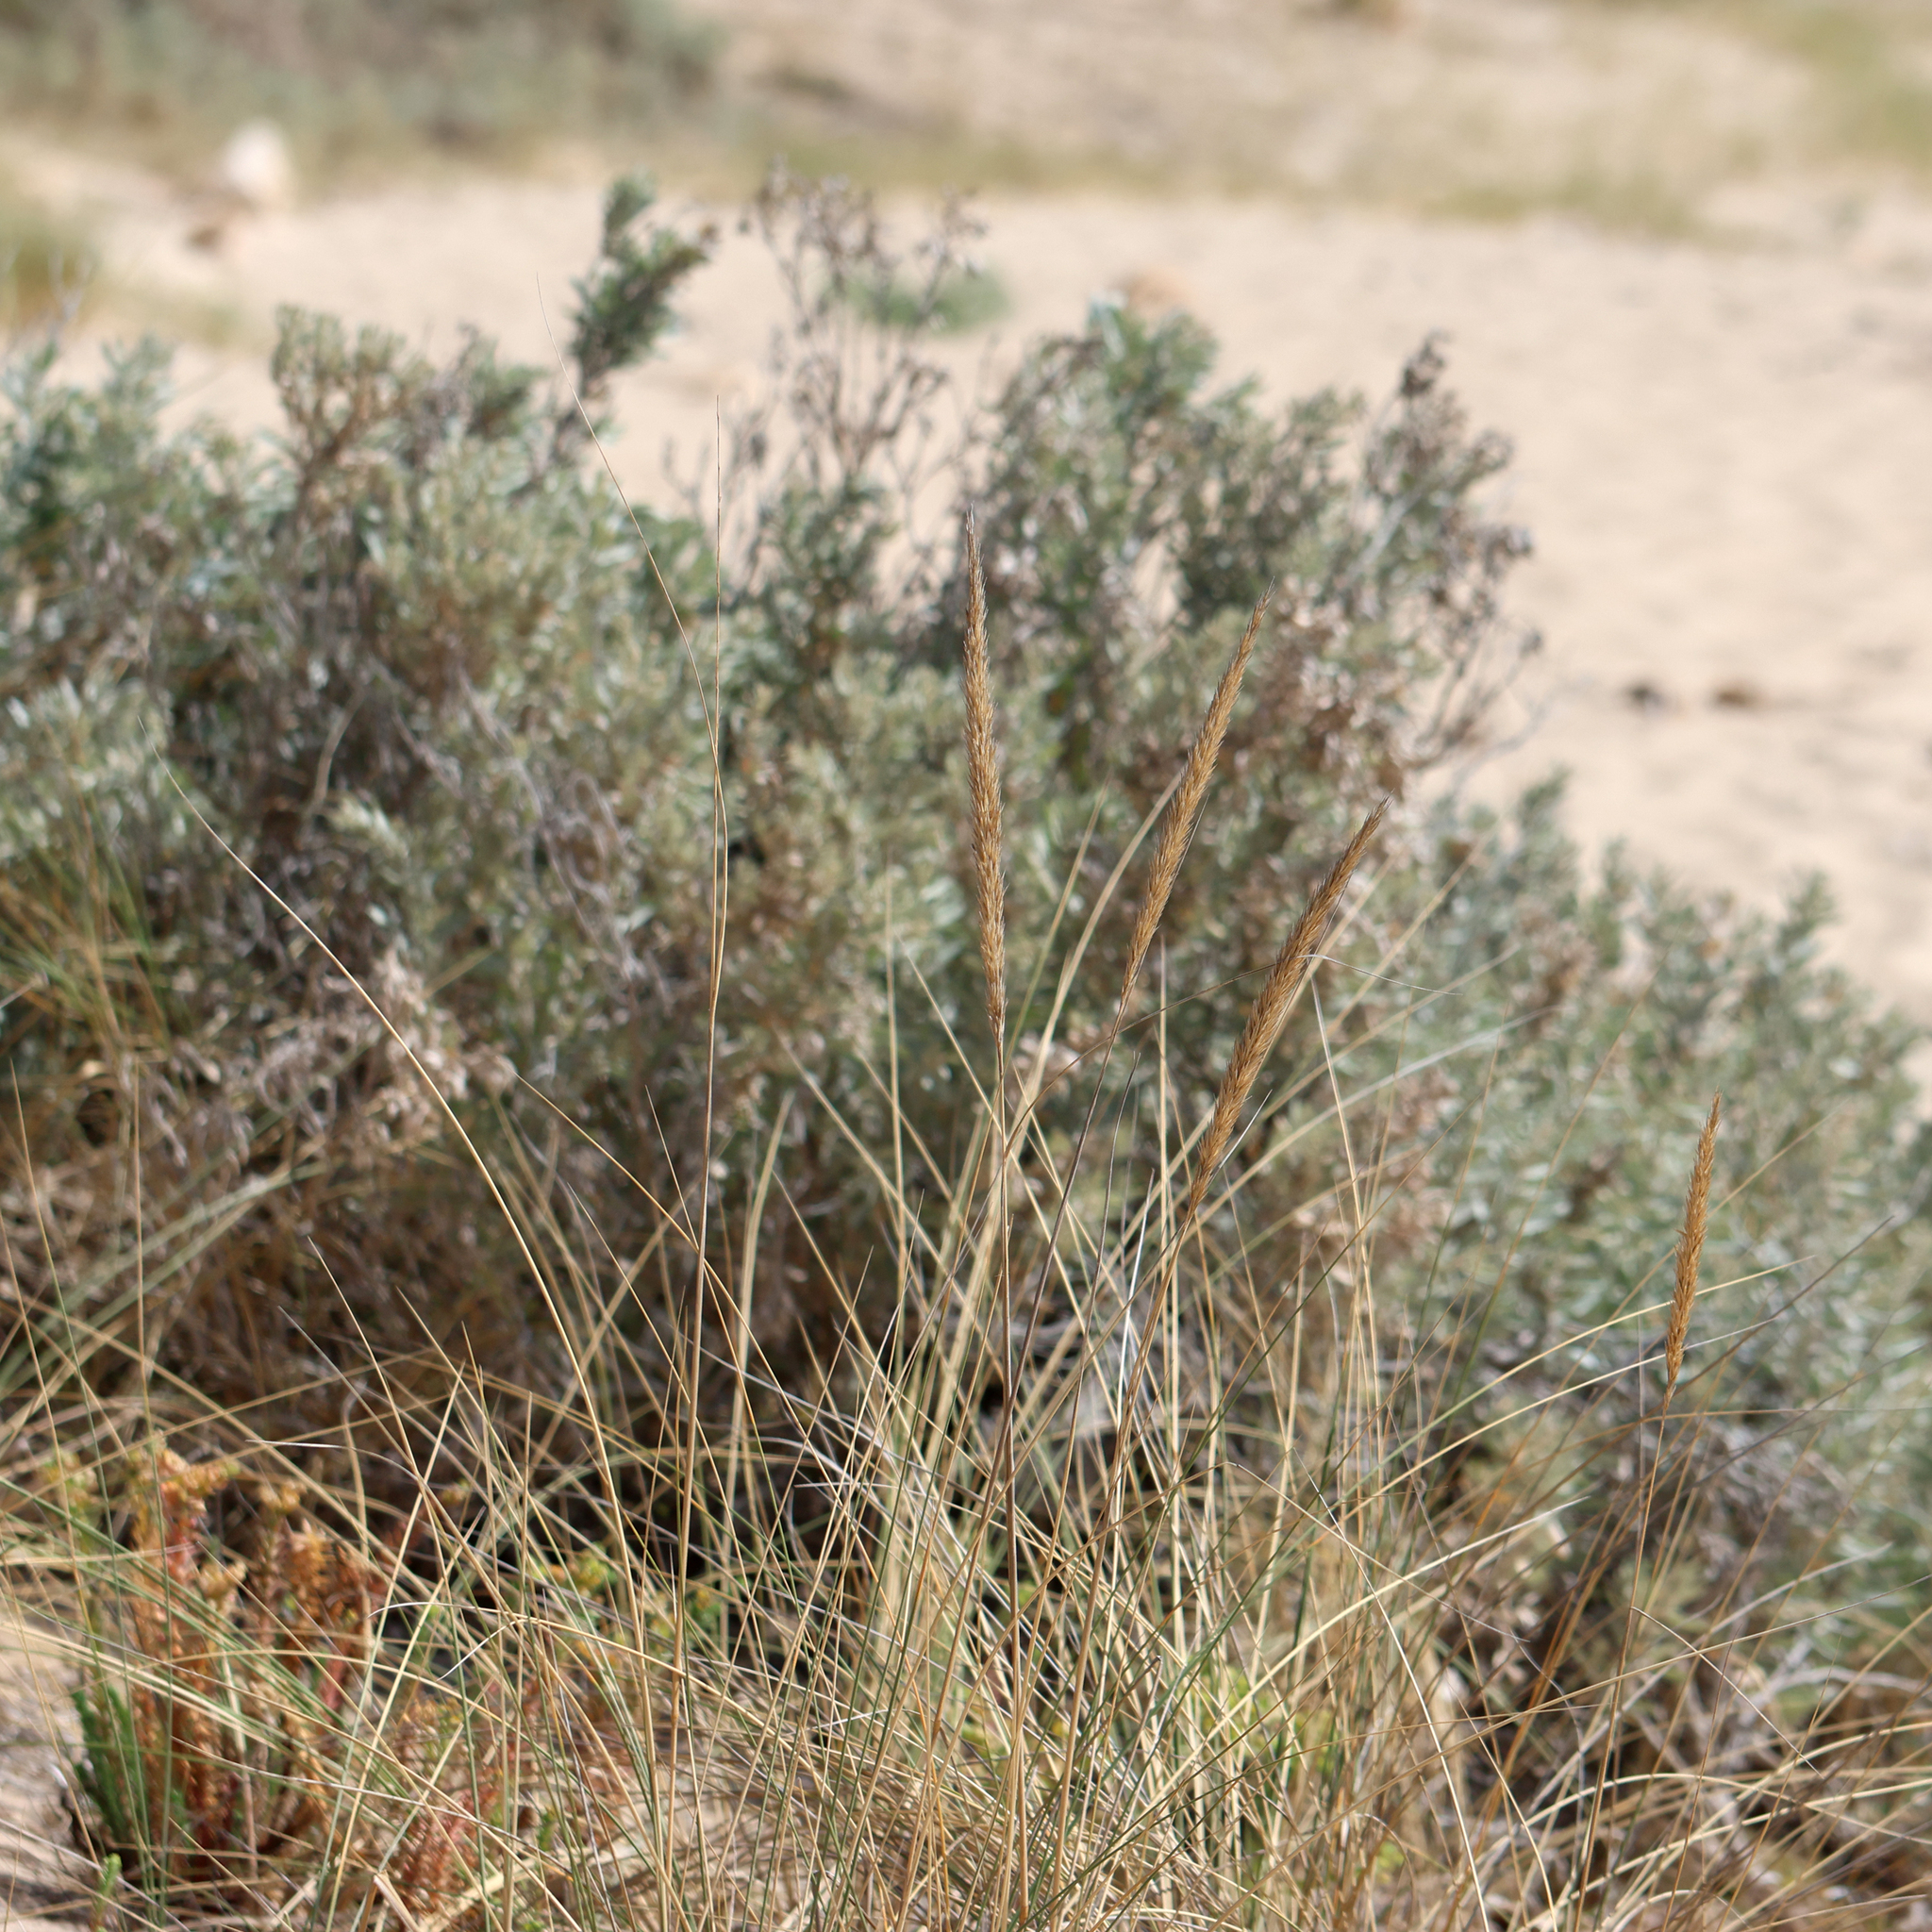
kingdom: Plantae
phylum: Tracheophyta
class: Liliopsida
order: Poales
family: Poaceae
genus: Calamagrostis
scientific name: Calamagrostis arenaria
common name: European beachgrass
